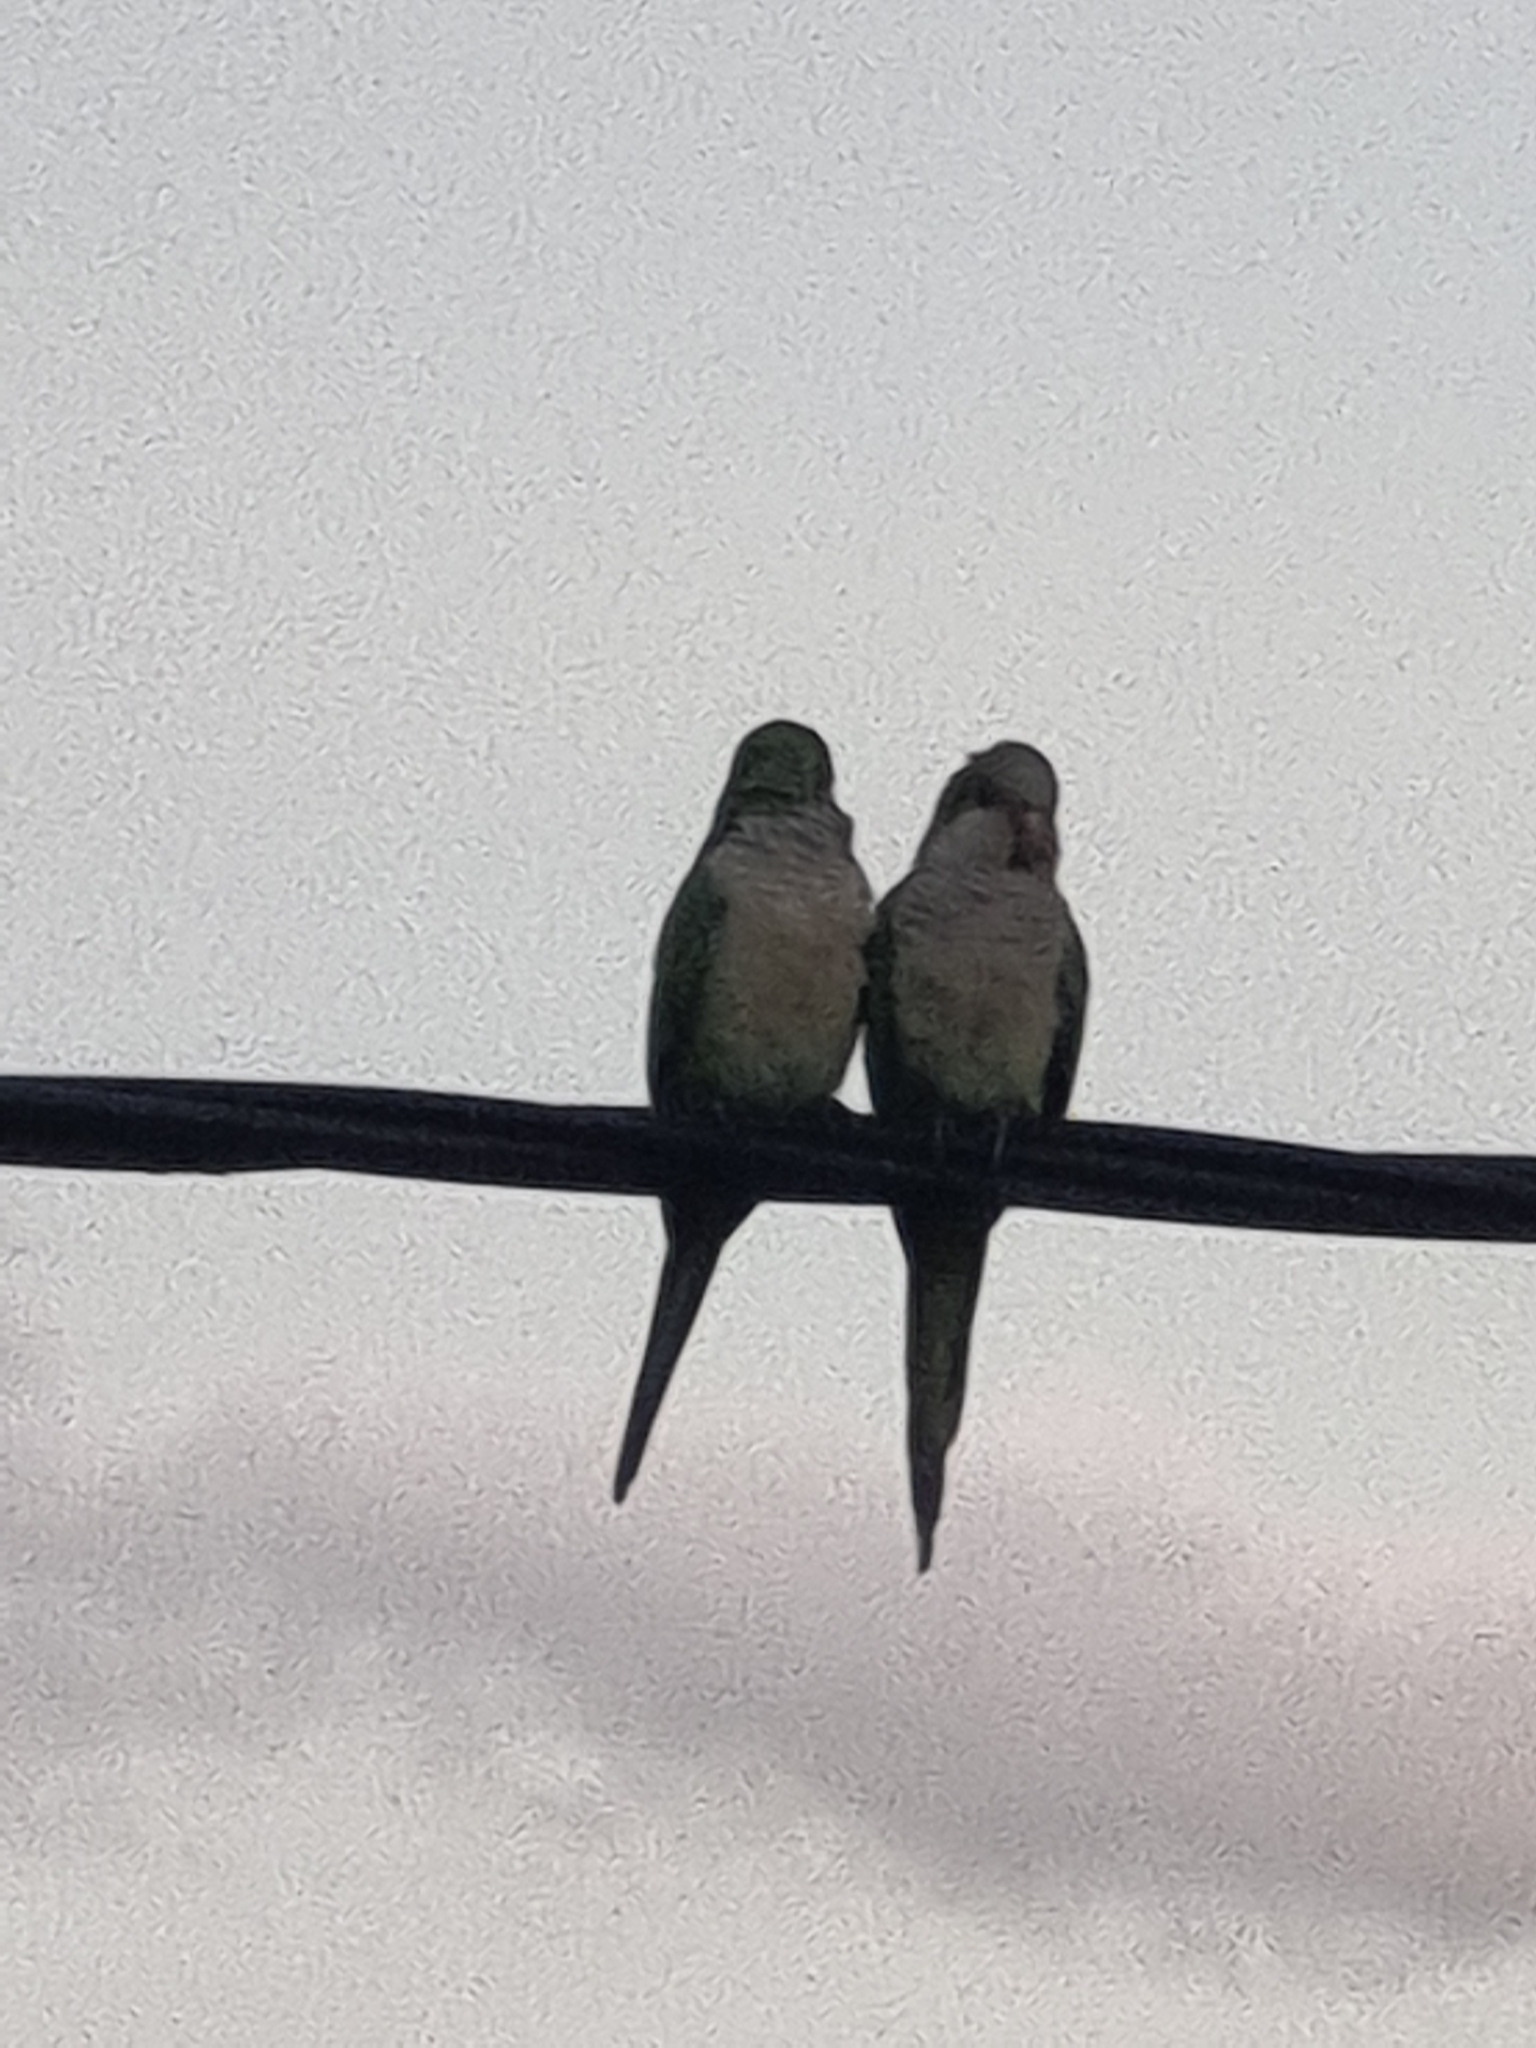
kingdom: Animalia
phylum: Chordata
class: Aves
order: Psittaciformes
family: Psittacidae
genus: Myiopsitta
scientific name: Myiopsitta monachus
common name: Monk parakeet
